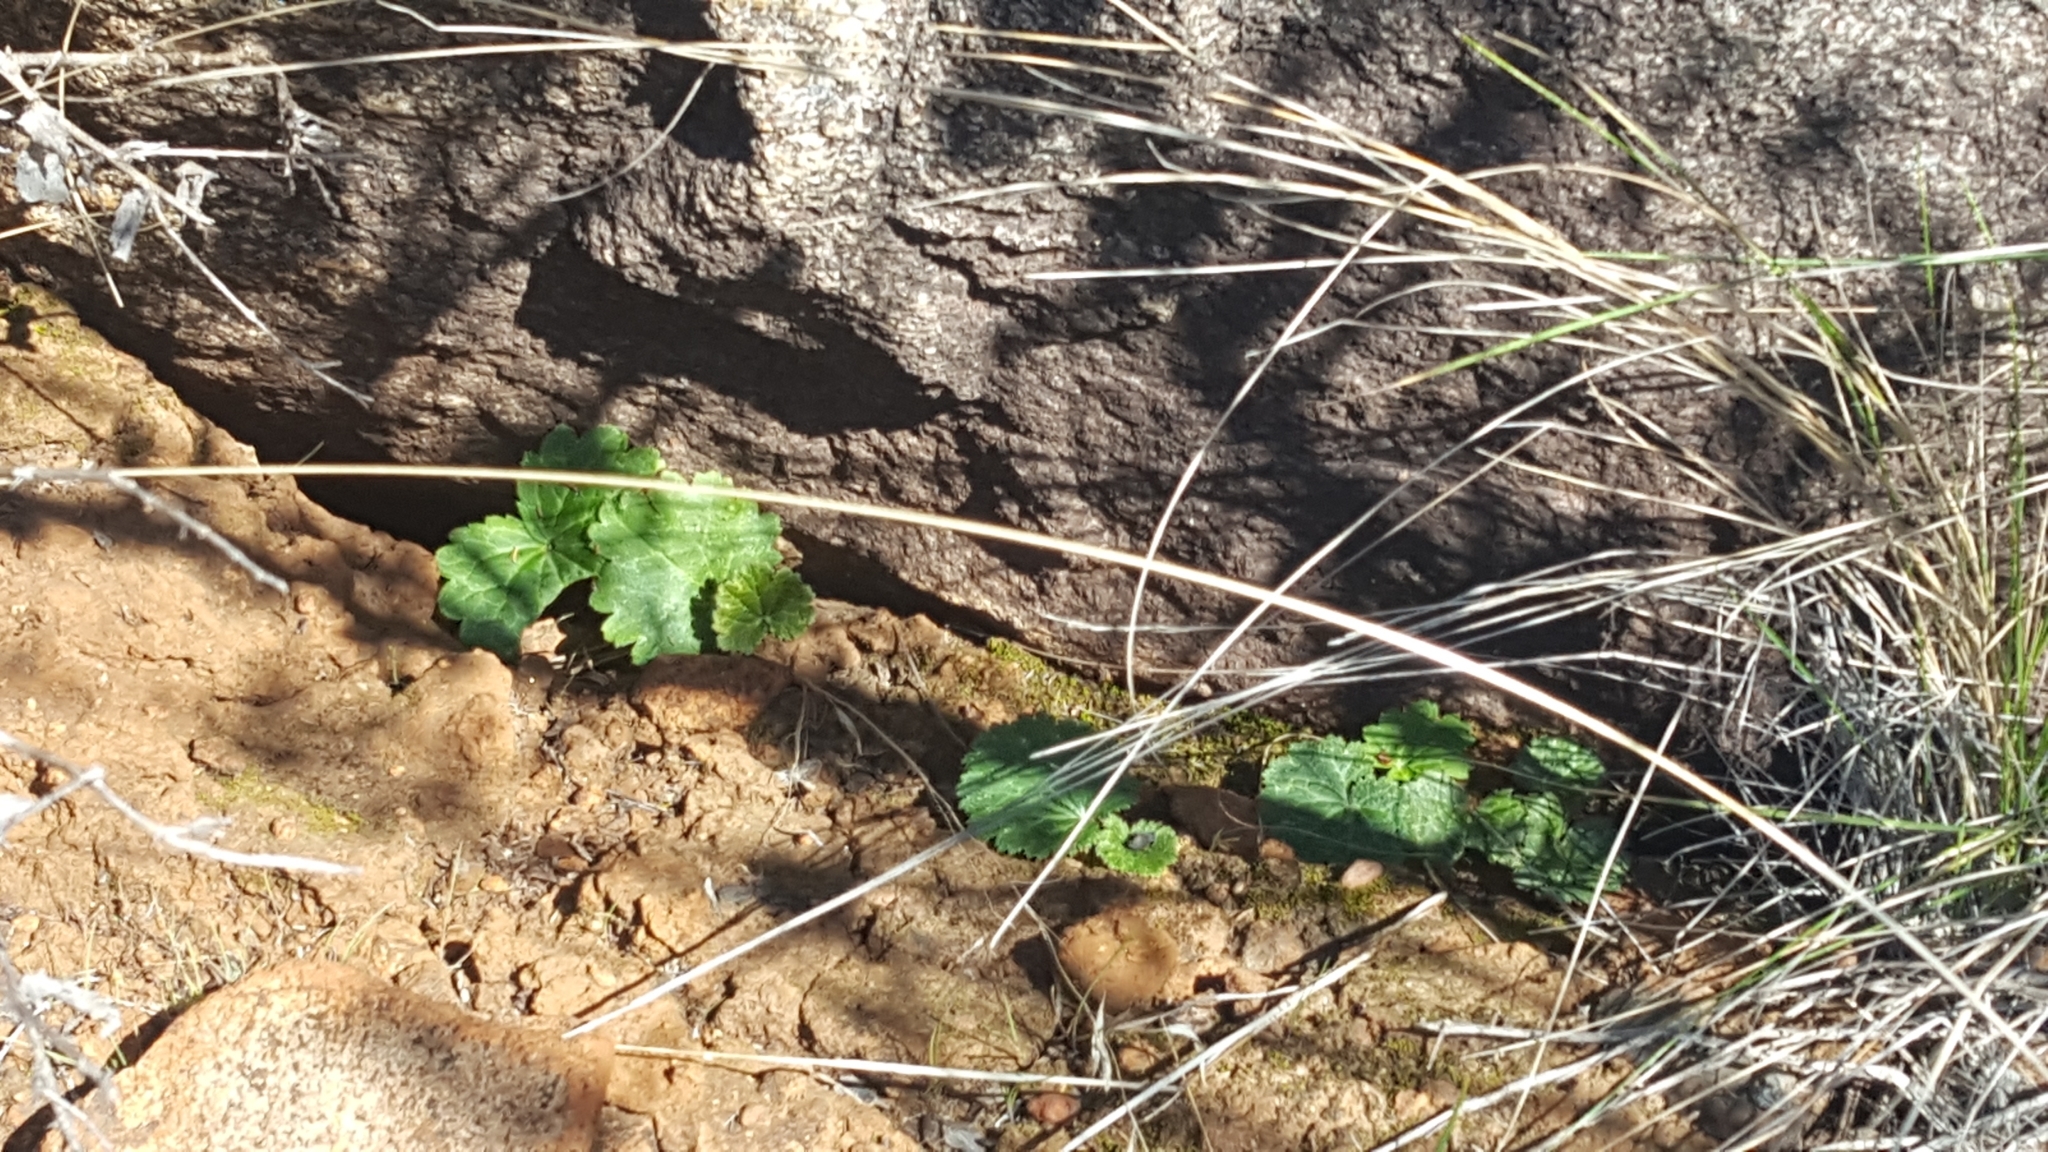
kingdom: Plantae
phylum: Tracheophyta
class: Magnoliopsida
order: Saxifragales
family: Saxifragaceae
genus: Jepsonia
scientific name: Jepsonia parryi
